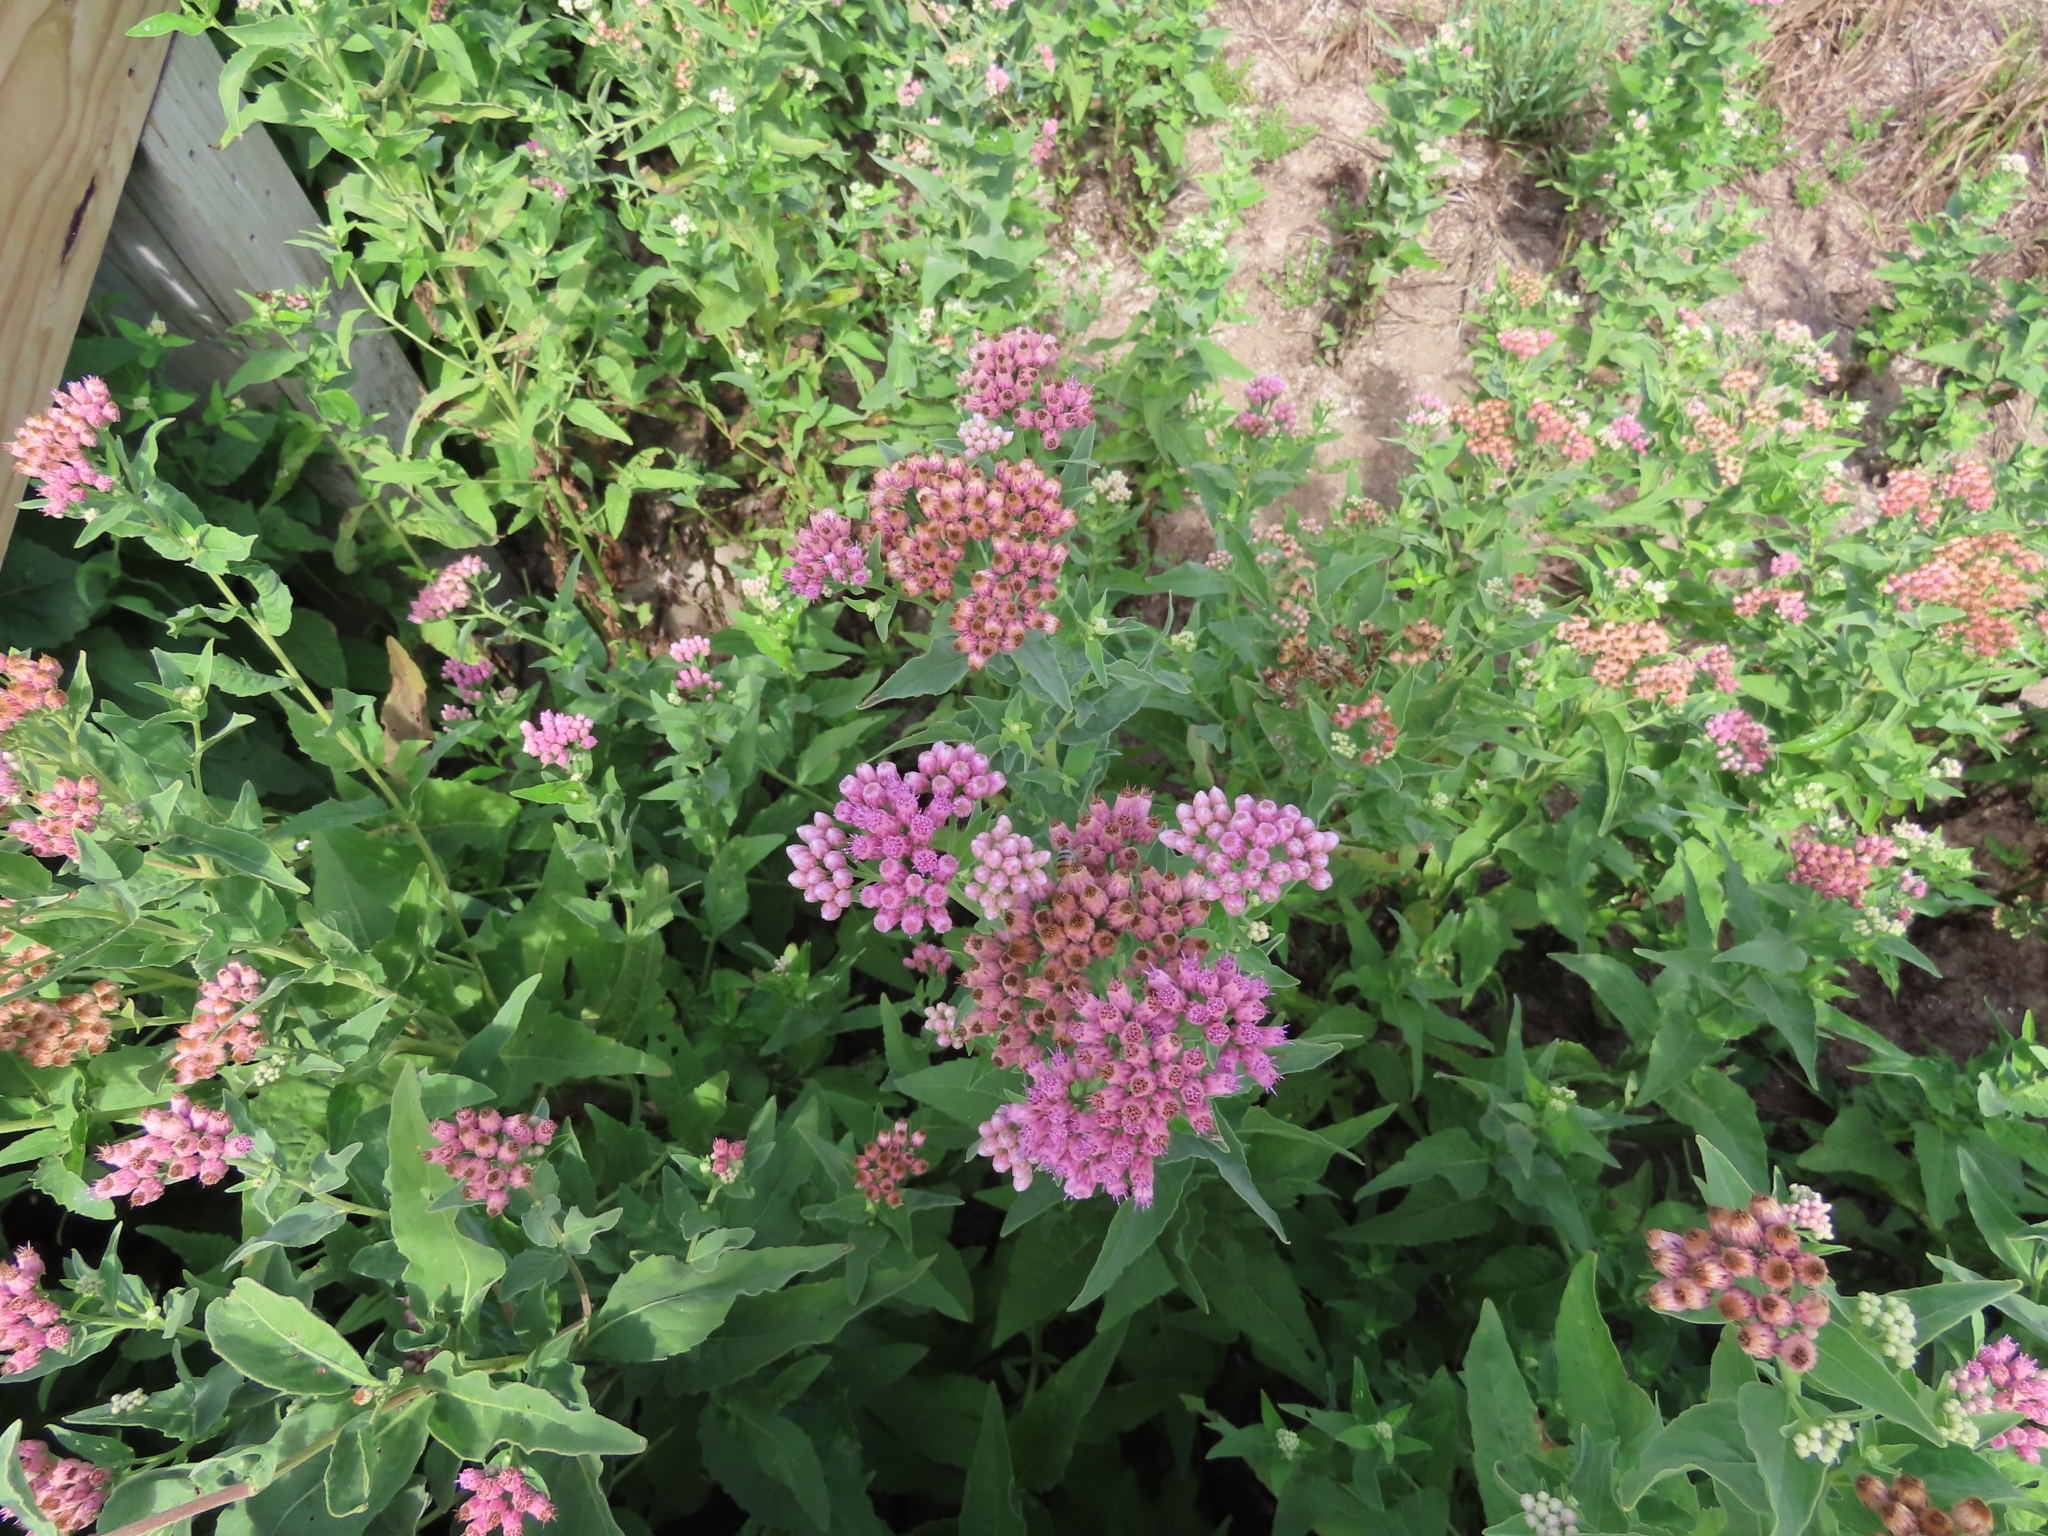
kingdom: Plantae
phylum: Tracheophyta
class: Magnoliopsida
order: Asterales
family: Asteraceae
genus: Pluchea
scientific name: Pluchea odorata
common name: Saltmarsh fleabane
